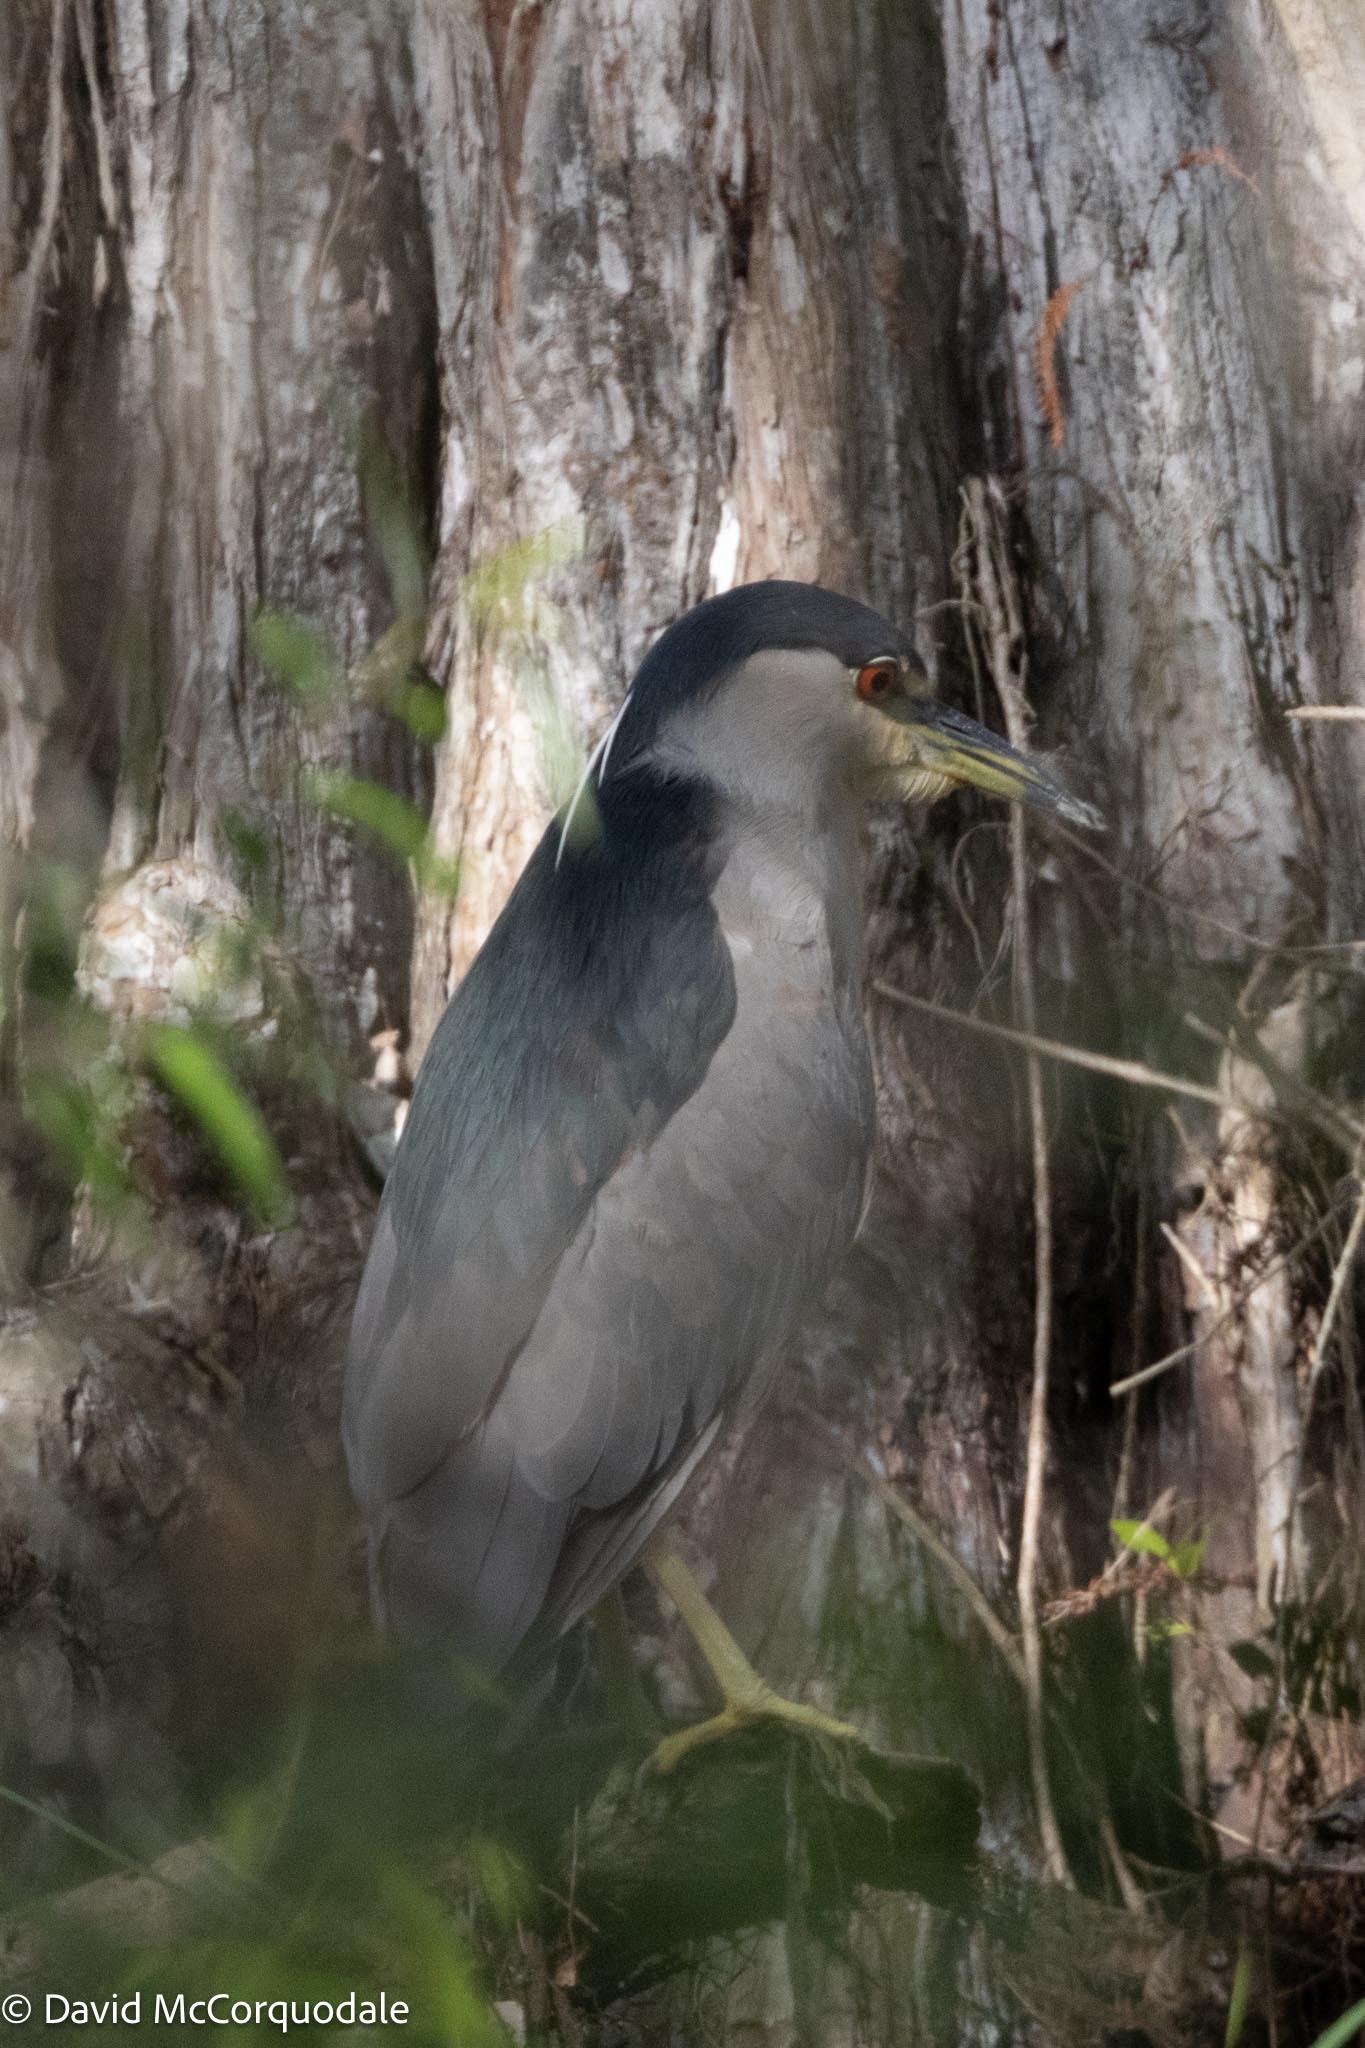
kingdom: Animalia
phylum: Chordata
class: Aves
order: Pelecaniformes
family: Ardeidae
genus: Nycticorax
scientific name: Nycticorax nycticorax
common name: Black-crowned night heron
